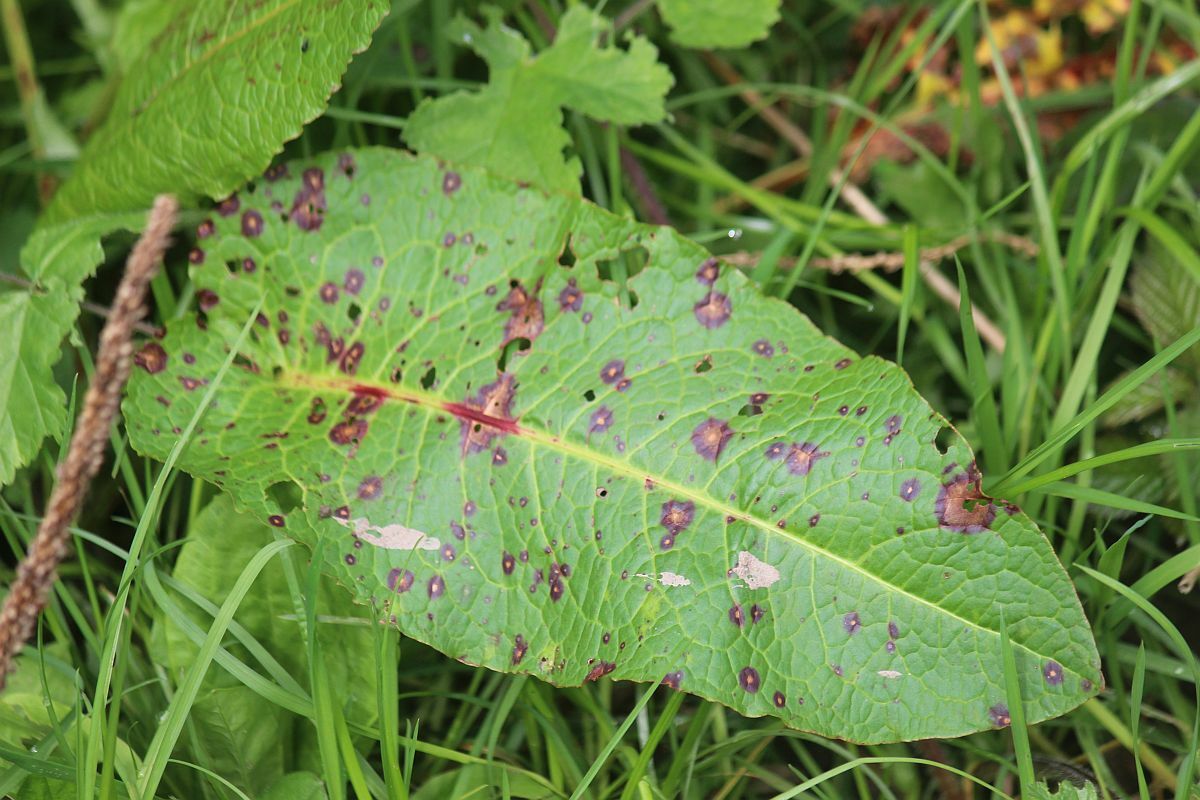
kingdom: Fungi
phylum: Ascomycota
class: Dothideomycetes
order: Mycosphaerellales
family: Mycosphaerellaceae
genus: Ramularia
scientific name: Ramularia rubella
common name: Red dock spot
